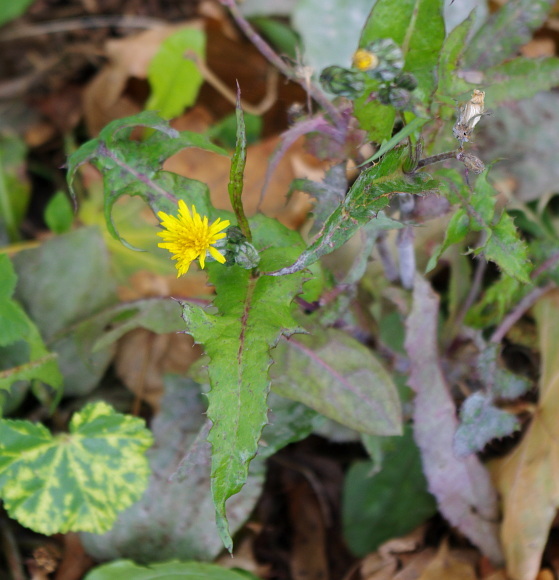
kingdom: Plantae
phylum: Tracheophyta
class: Magnoliopsida
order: Asterales
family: Asteraceae
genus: Sonchus
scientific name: Sonchus oleraceus
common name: Common sowthistle
